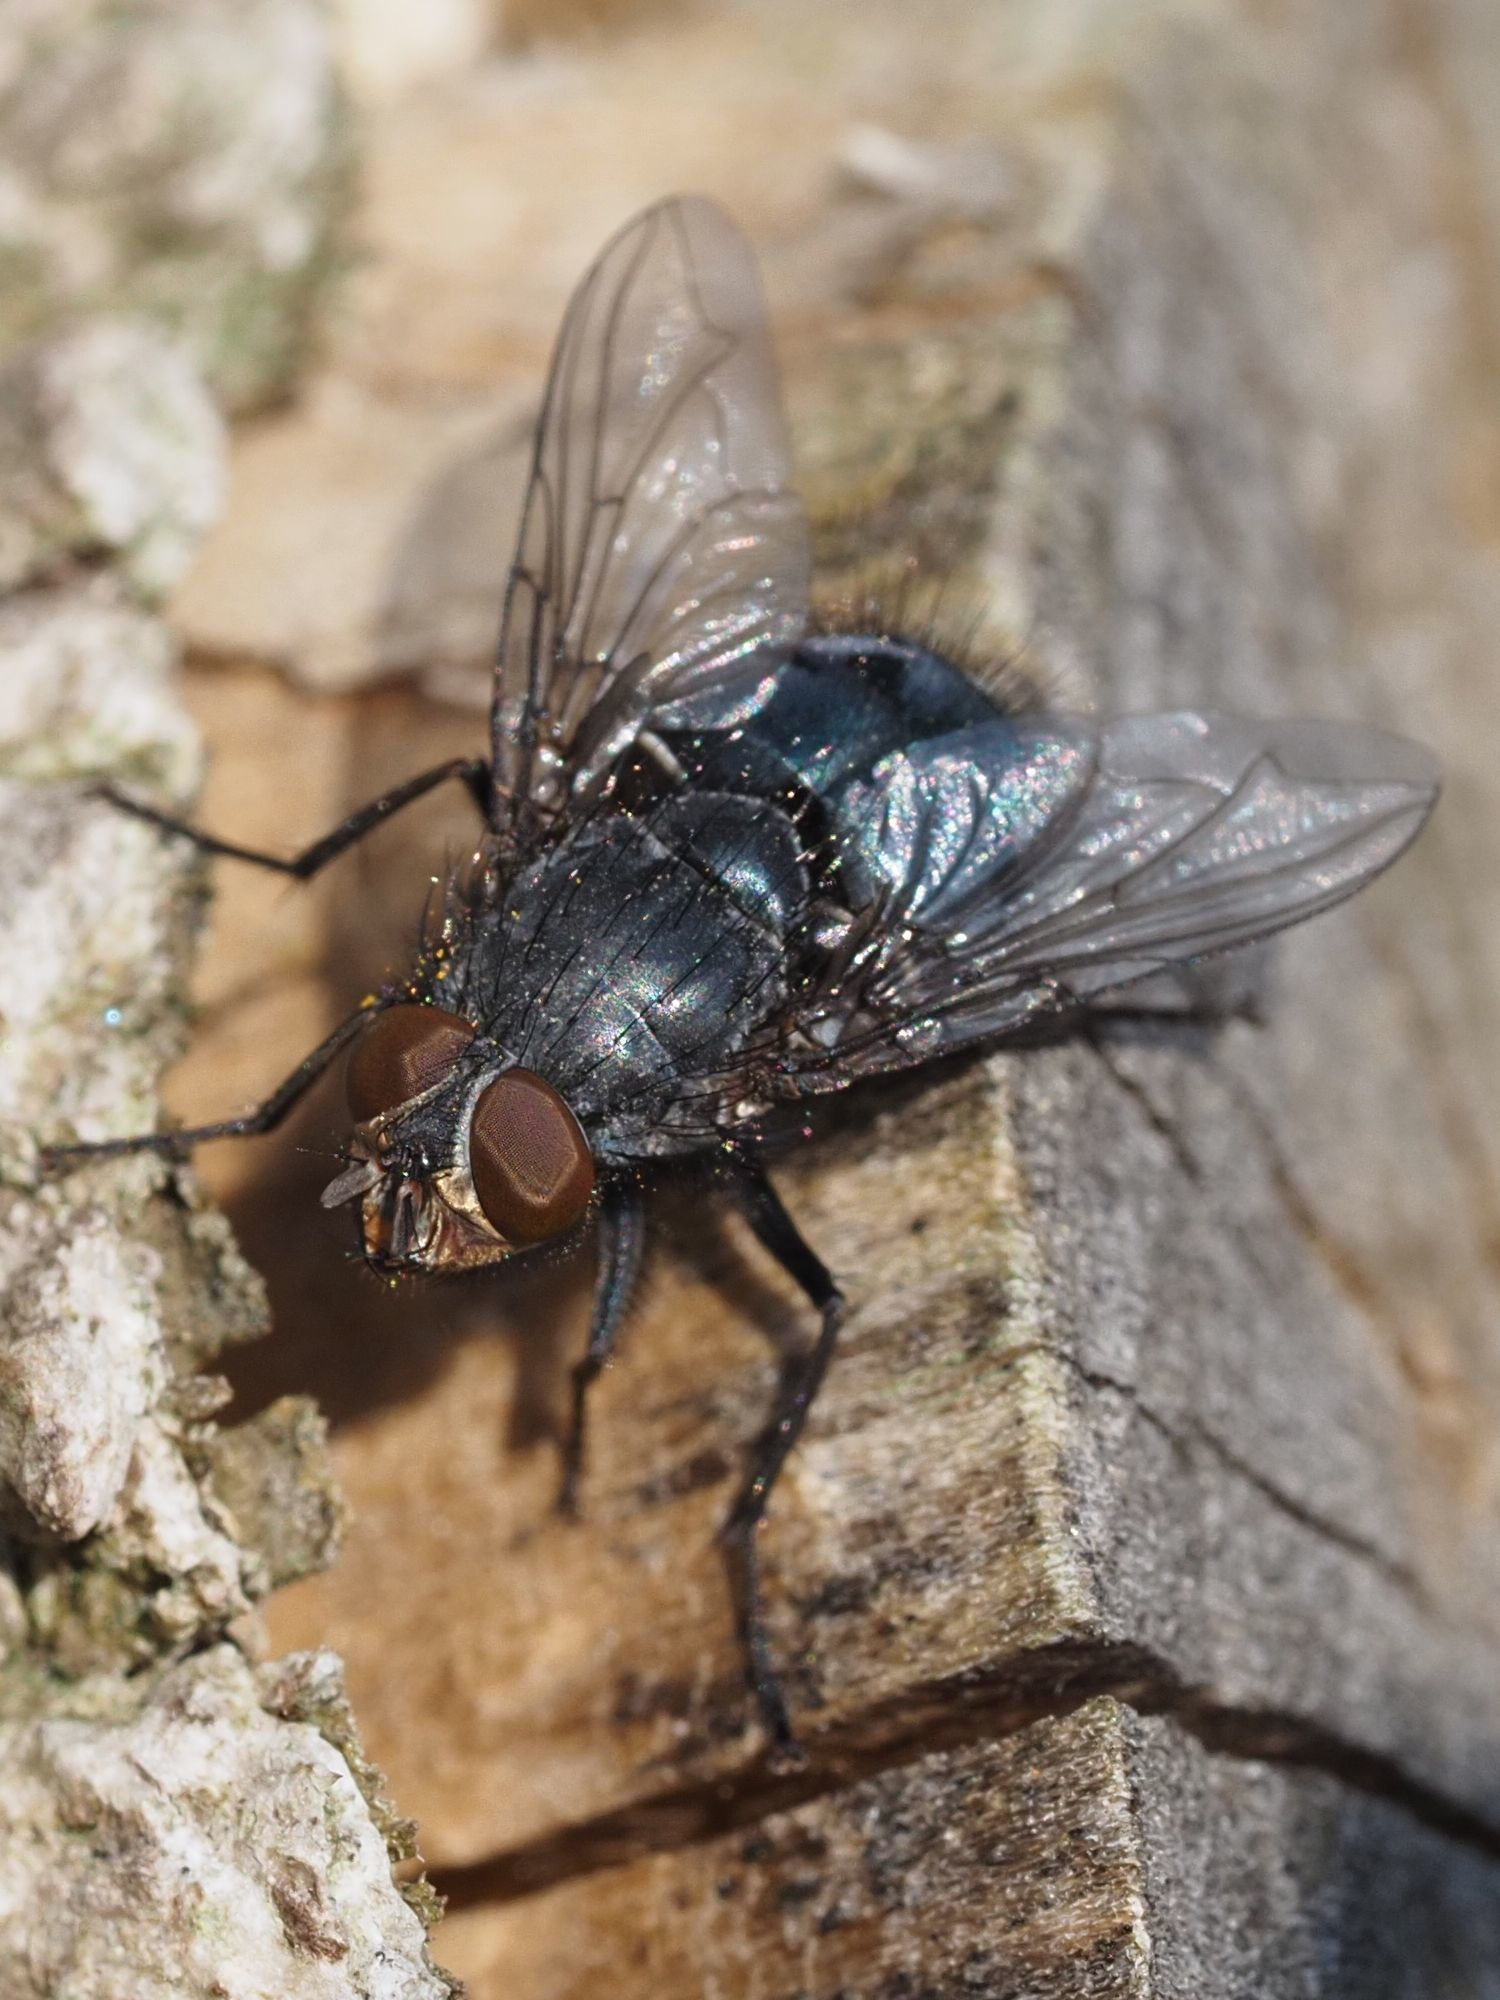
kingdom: Animalia
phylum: Arthropoda
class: Insecta
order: Diptera
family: Calliphoridae
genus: Calliphora
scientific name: Calliphora vicina
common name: Common blow flie
